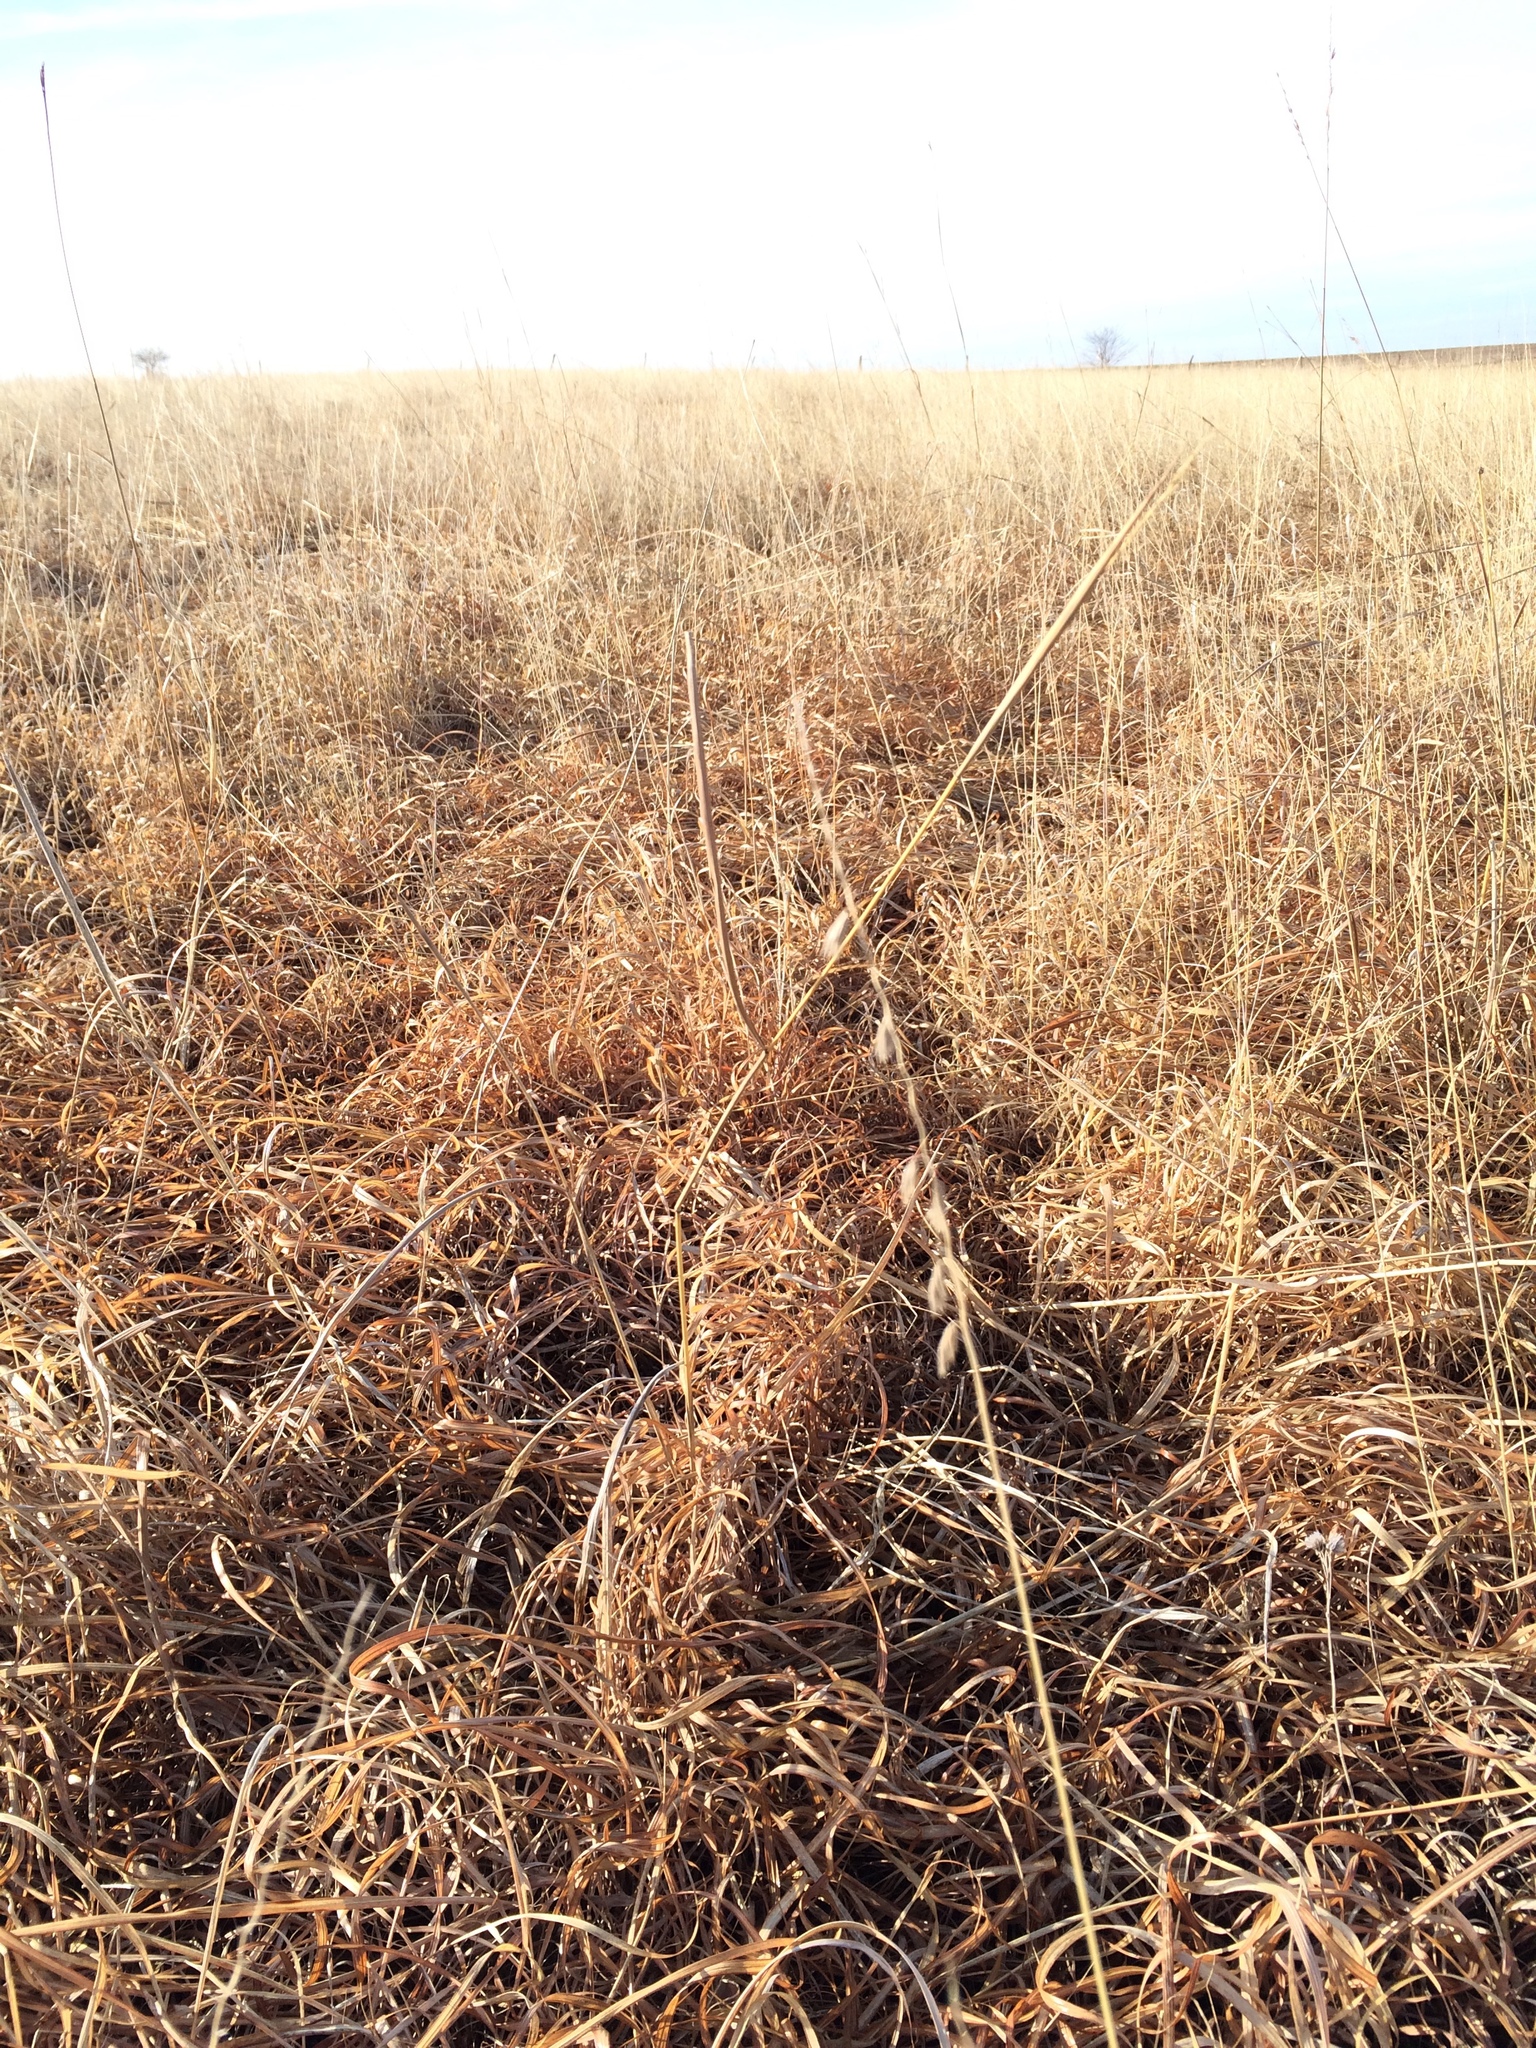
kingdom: Plantae
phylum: Tracheophyta
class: Liliopsida
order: Poales
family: Poaceae
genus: Bouteloua
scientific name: Bouteloua curtipendula
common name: Side-oats grama
